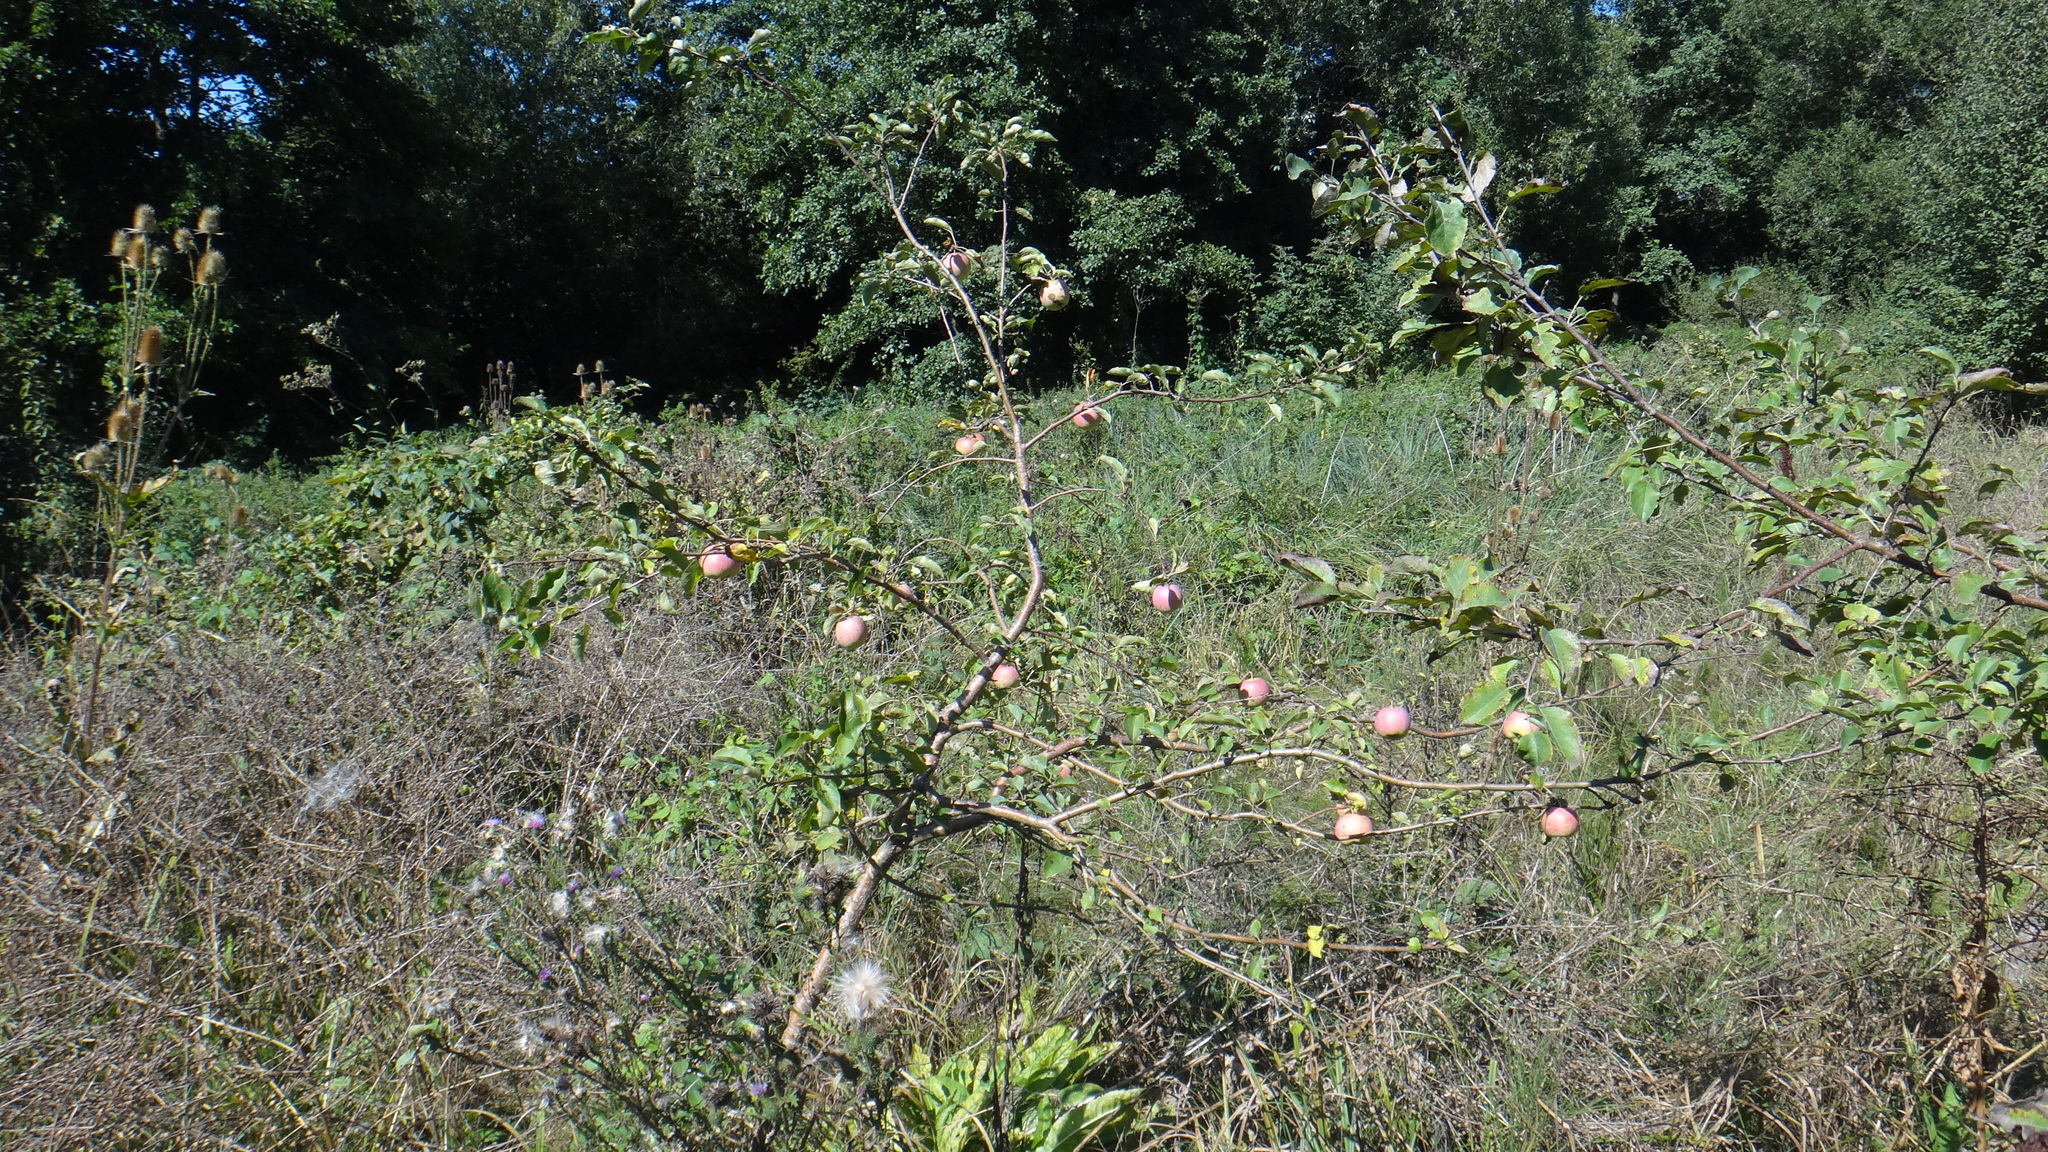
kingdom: Plantae
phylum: Tracheophyta
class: Magnoliopsida
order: Rosales
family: Rosaceae
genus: Malus
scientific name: Malus domestica
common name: Apple
